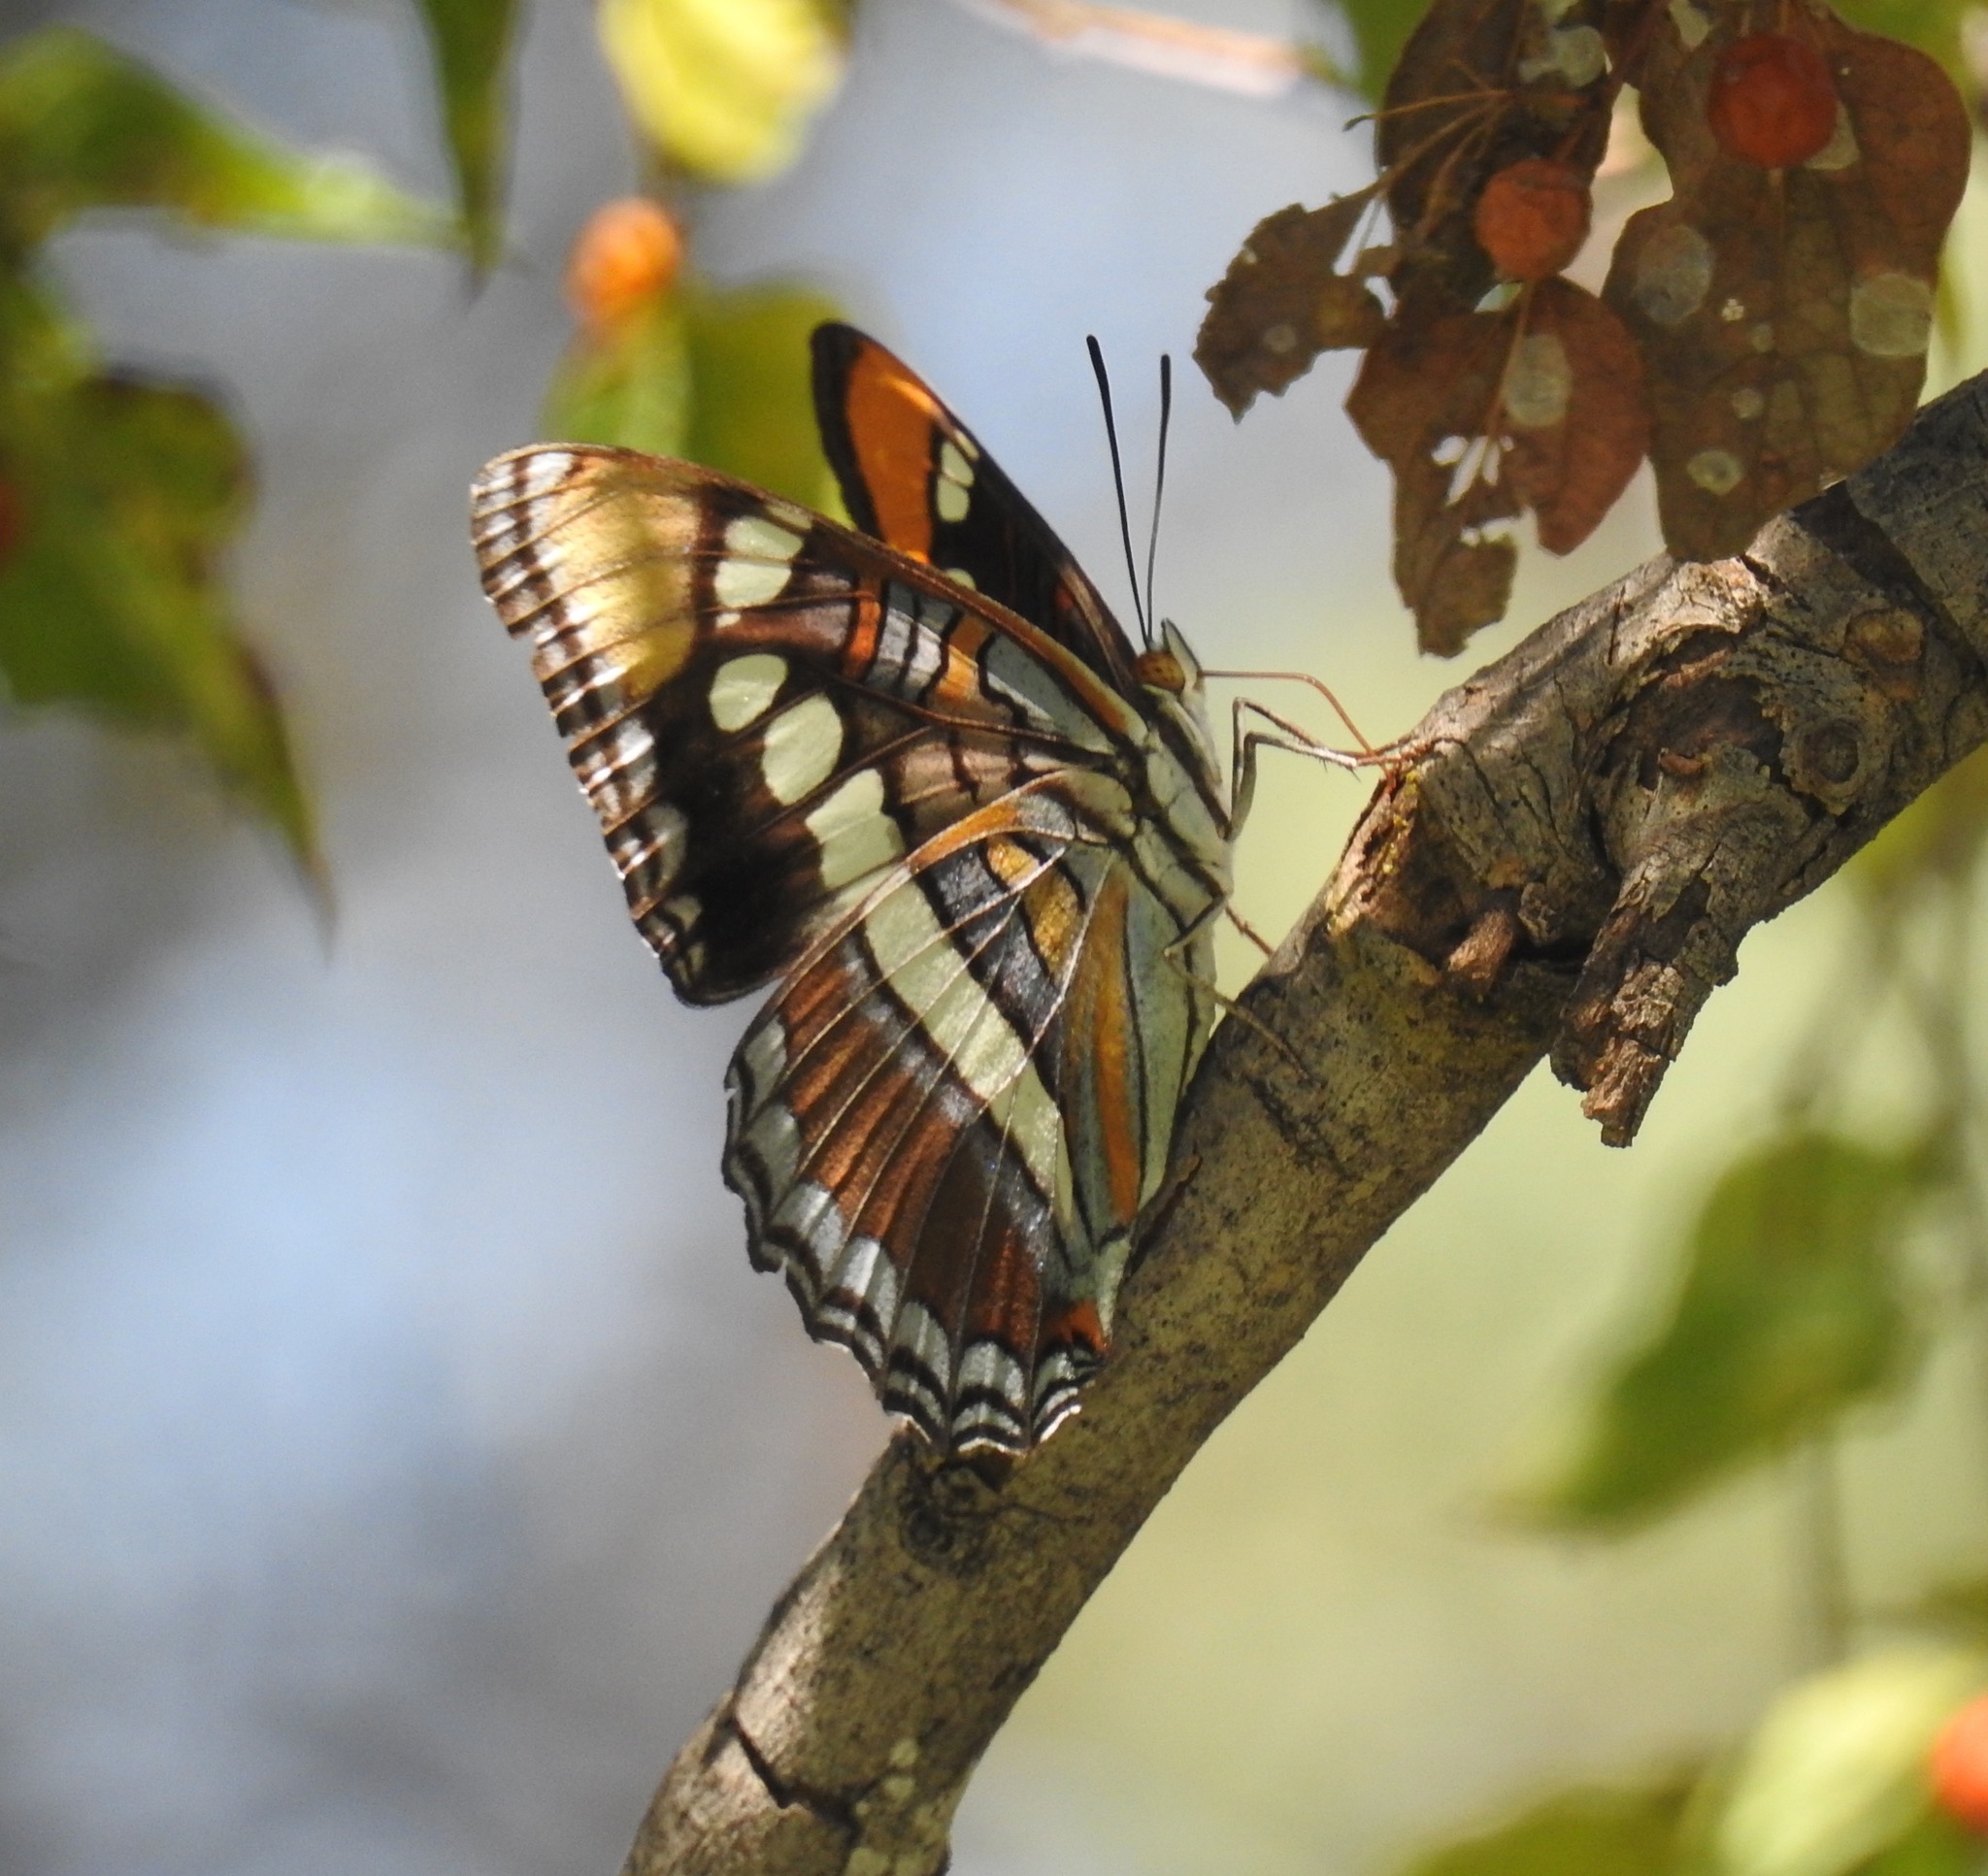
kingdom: Animalia
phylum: Arthropoda
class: Insecta
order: Lepidoptera
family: Nymphalidae
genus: Limenitis
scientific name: Limenitis bredowii
